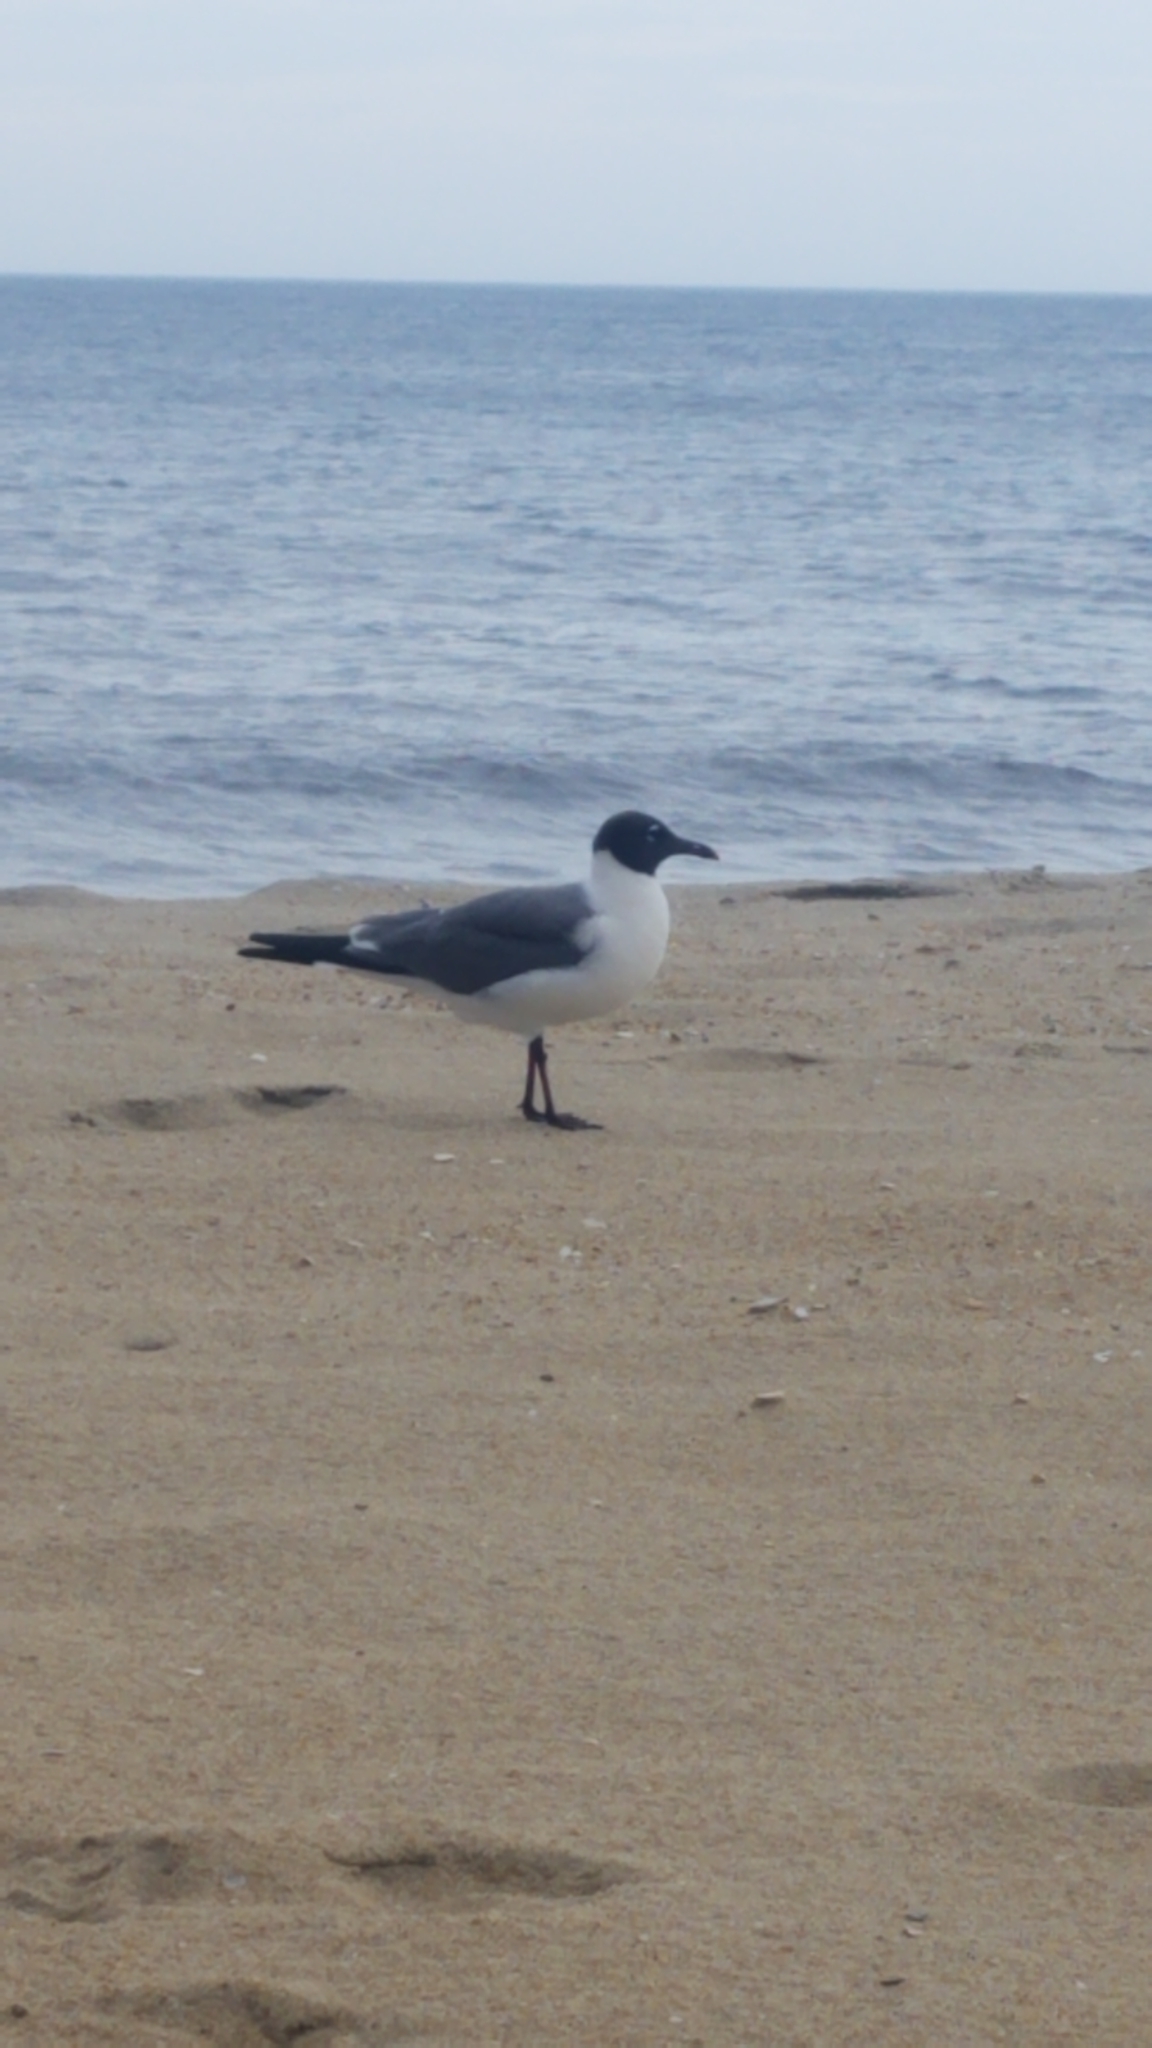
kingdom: Animalia
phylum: Chordata
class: Aves
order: Charadriiformes
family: Laridae
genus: Leucophaeus
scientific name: Leucophaeus atricilla
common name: Laughing gull
